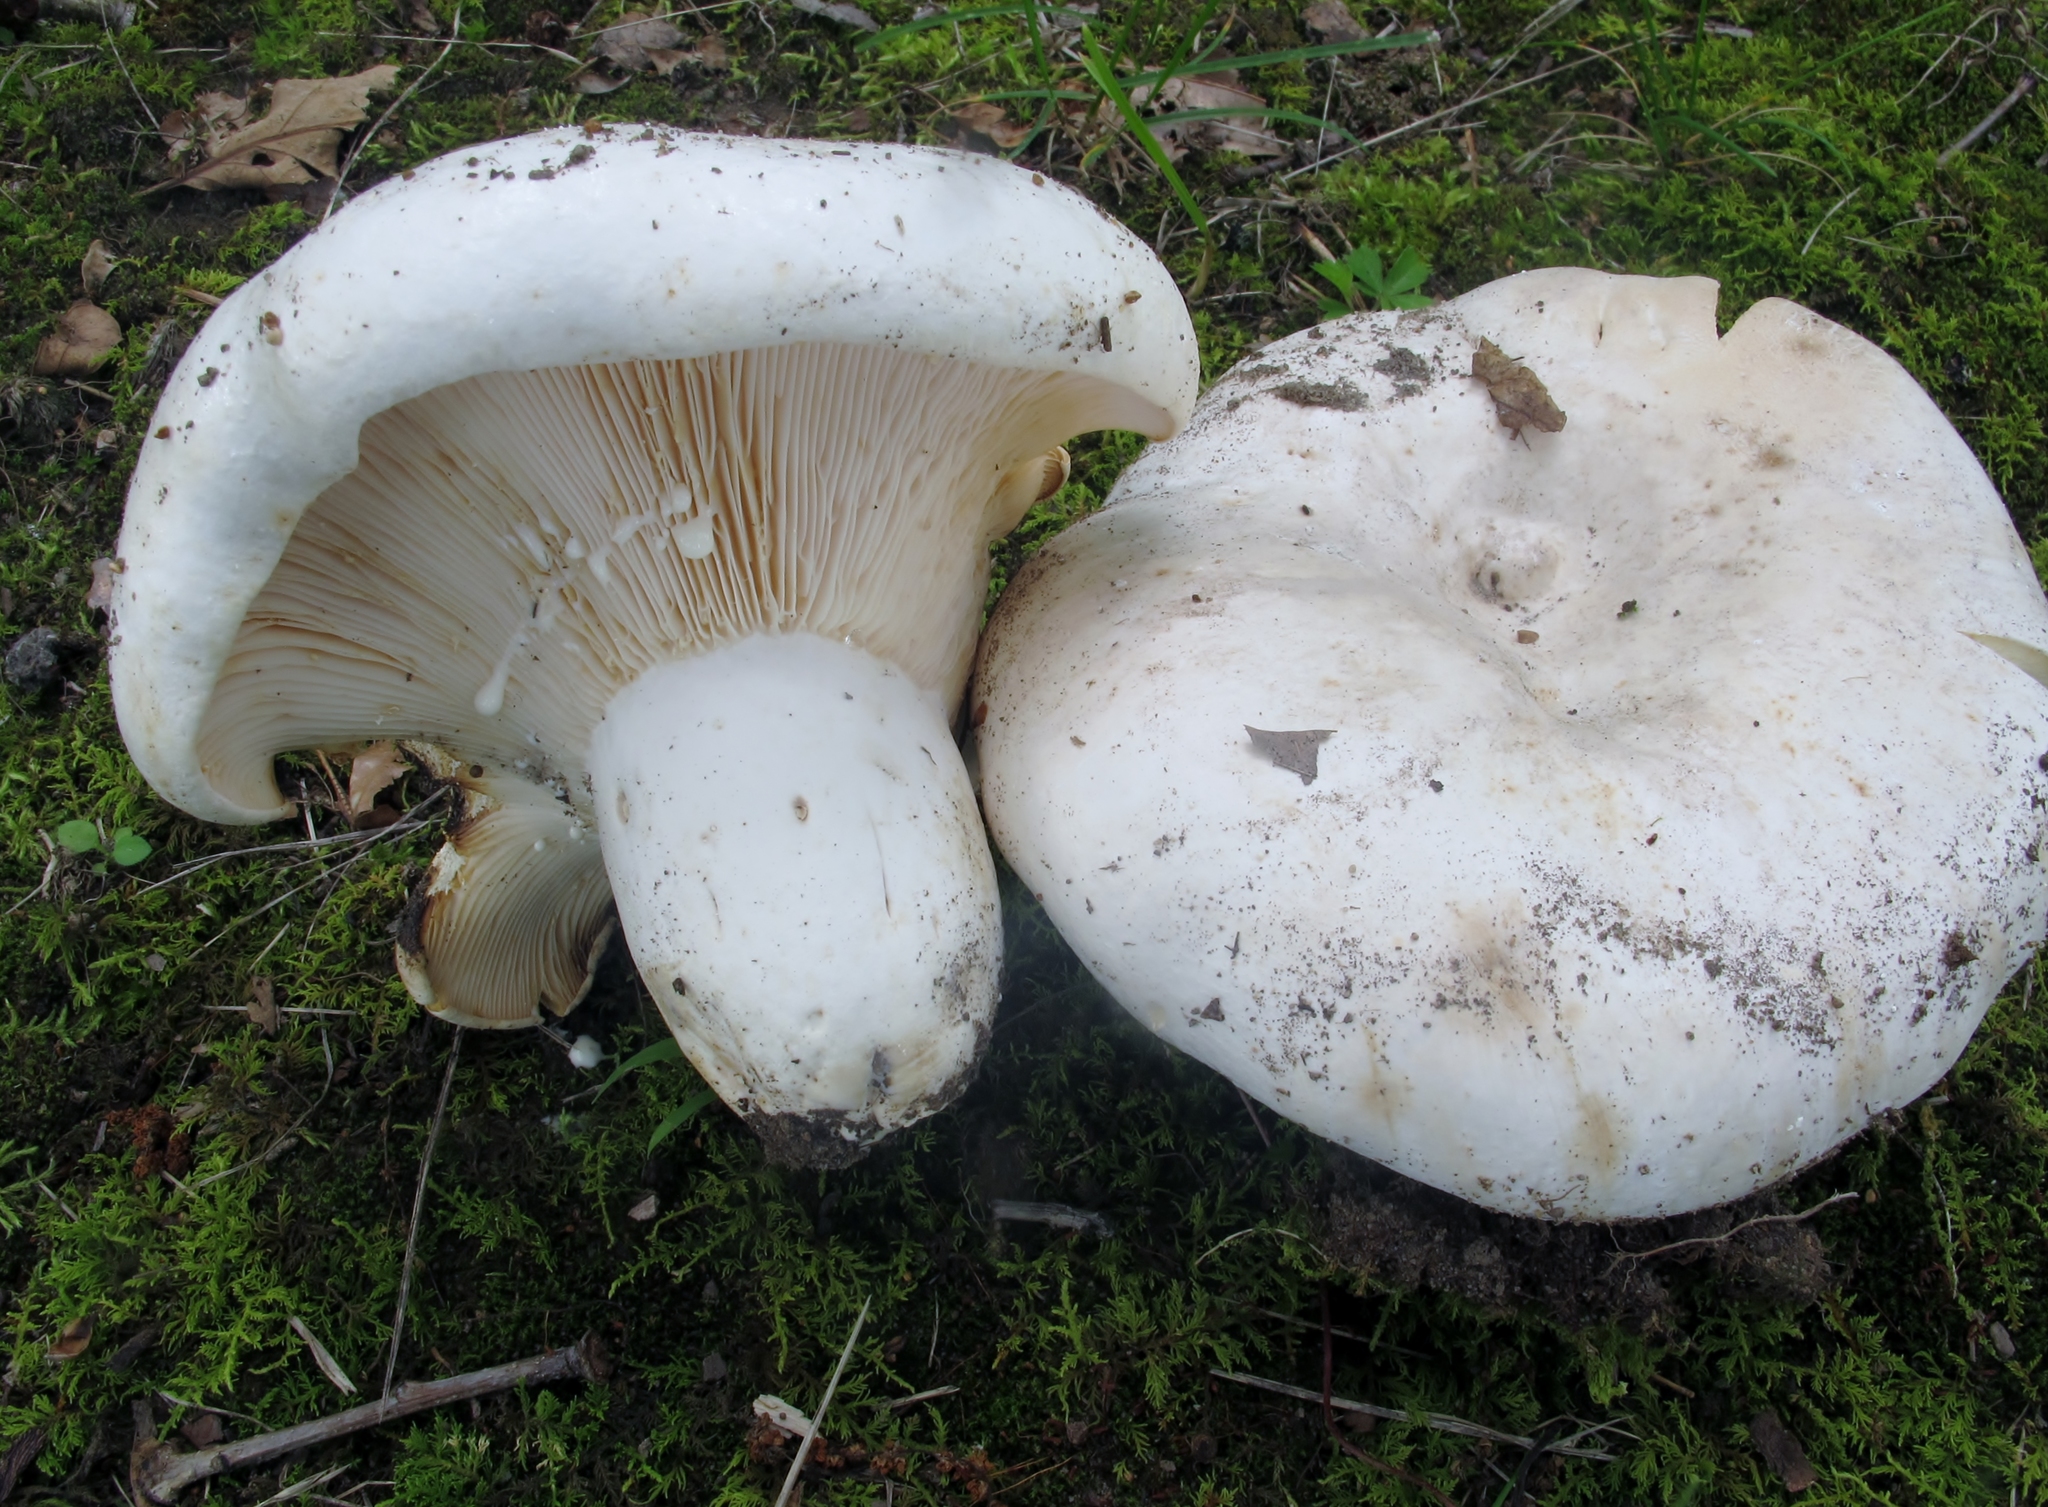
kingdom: Fungi
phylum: Basidiomycota
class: Agaricomycetes
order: Russulales
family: Russulaceae
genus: Lactifluus
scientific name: Lactifluus piperatus
